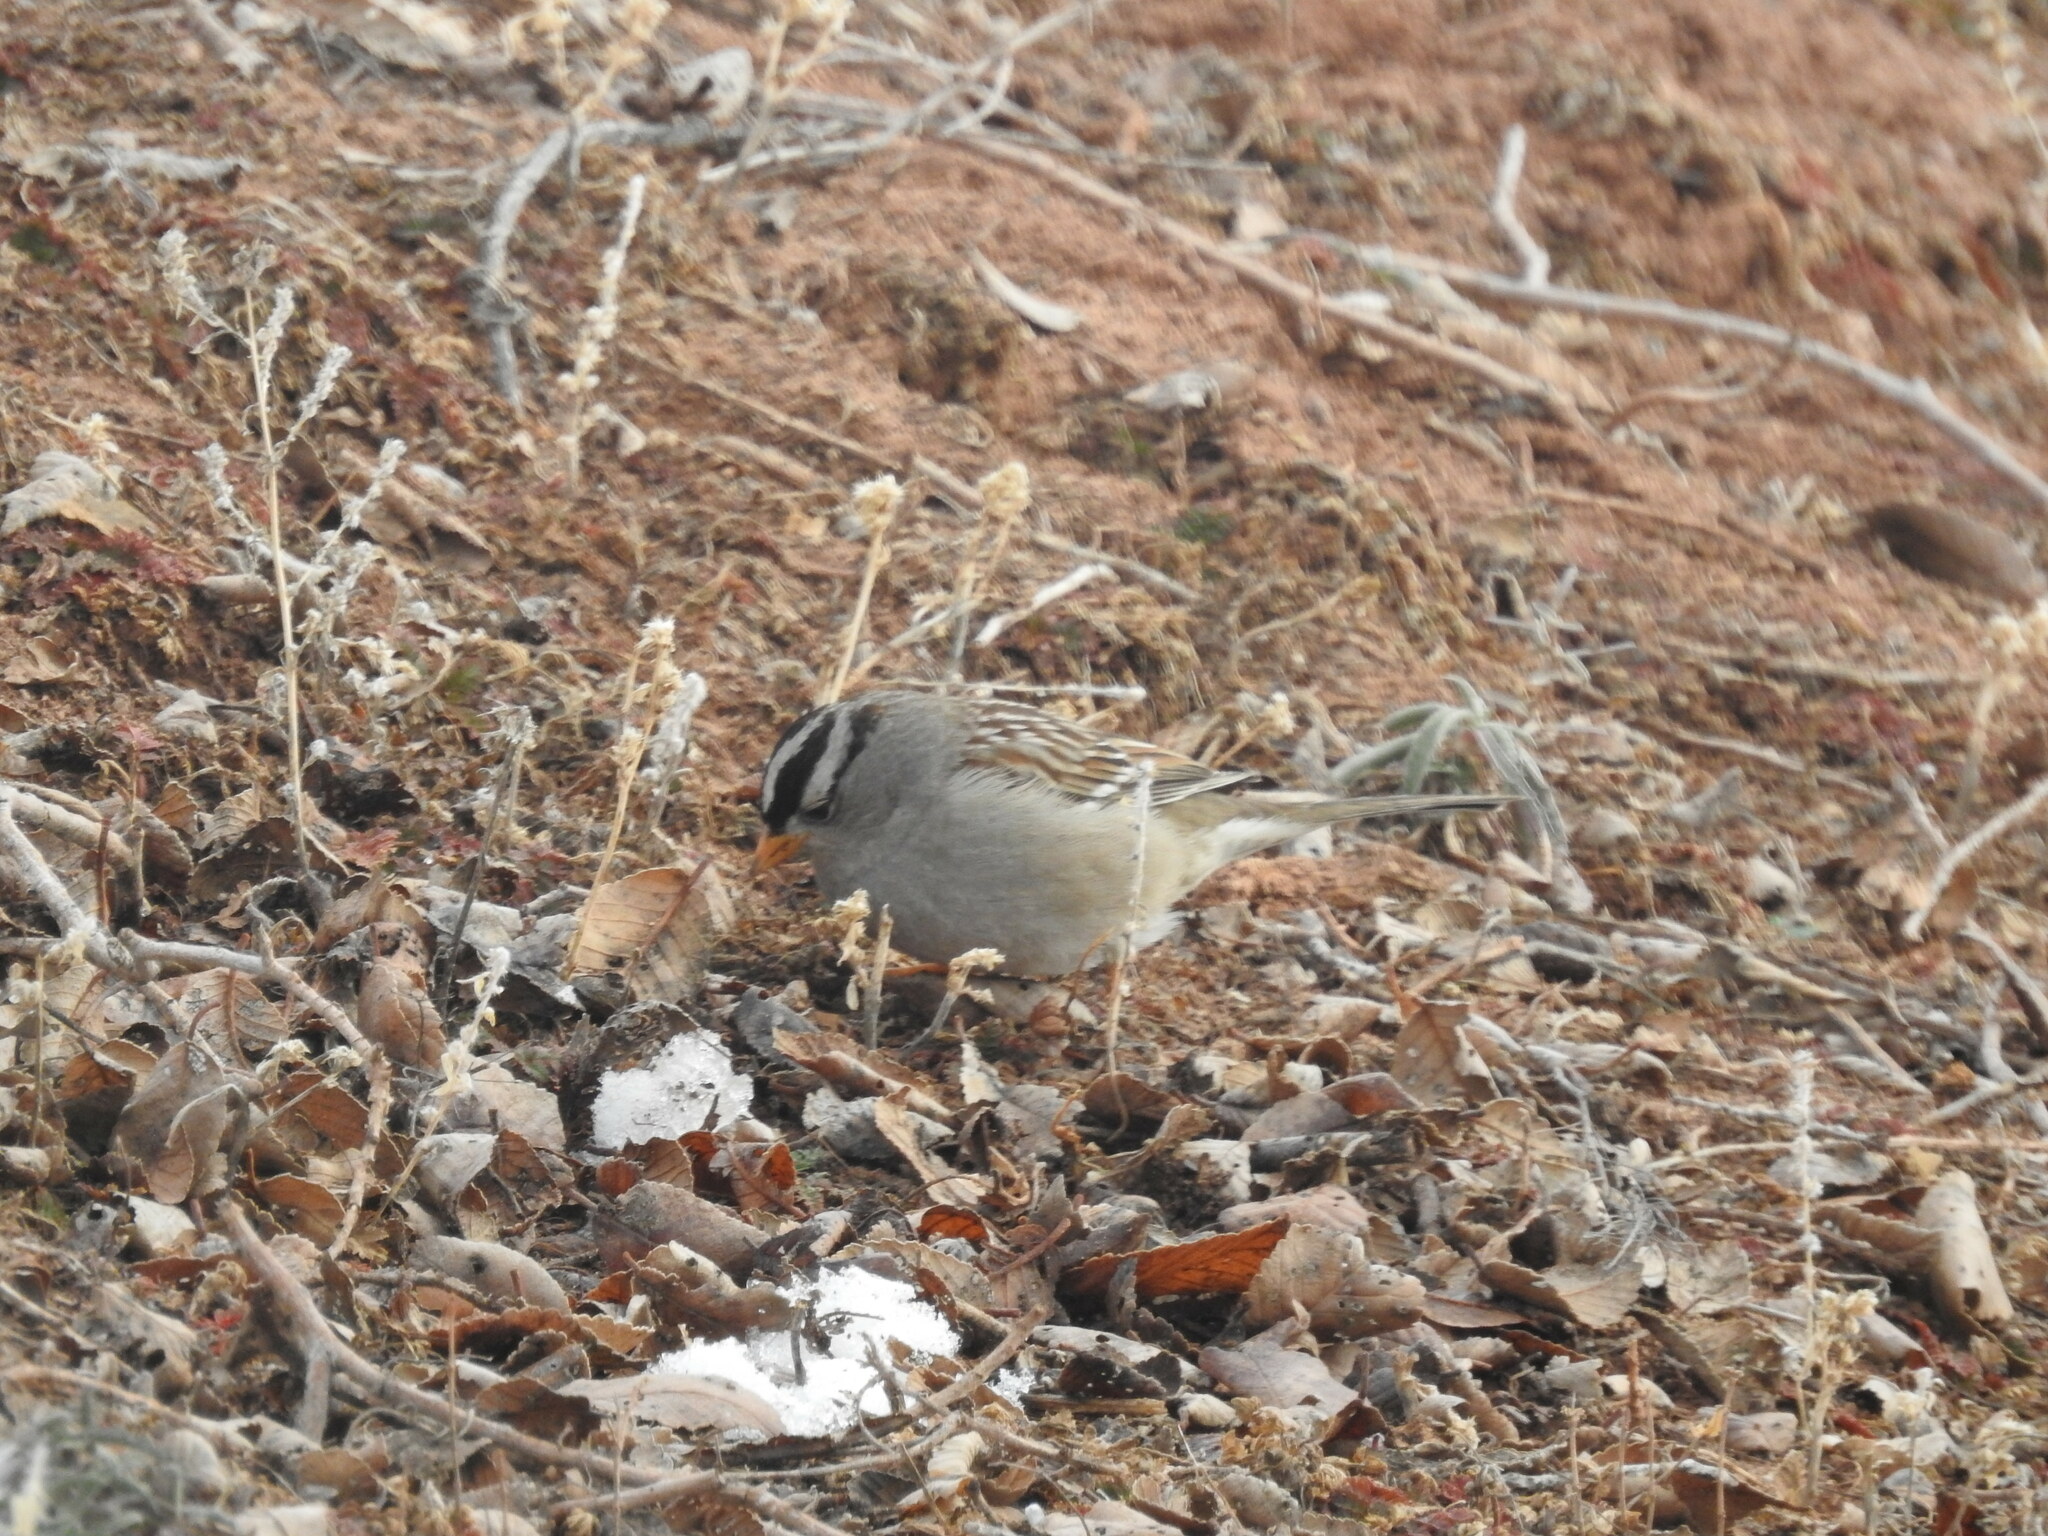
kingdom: Animalia
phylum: Chordata
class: Aves
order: Passeriformes
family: Passerellidae
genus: Zonotrichia
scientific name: Zonotrichia leucophrys
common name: White-crowned sparrow
